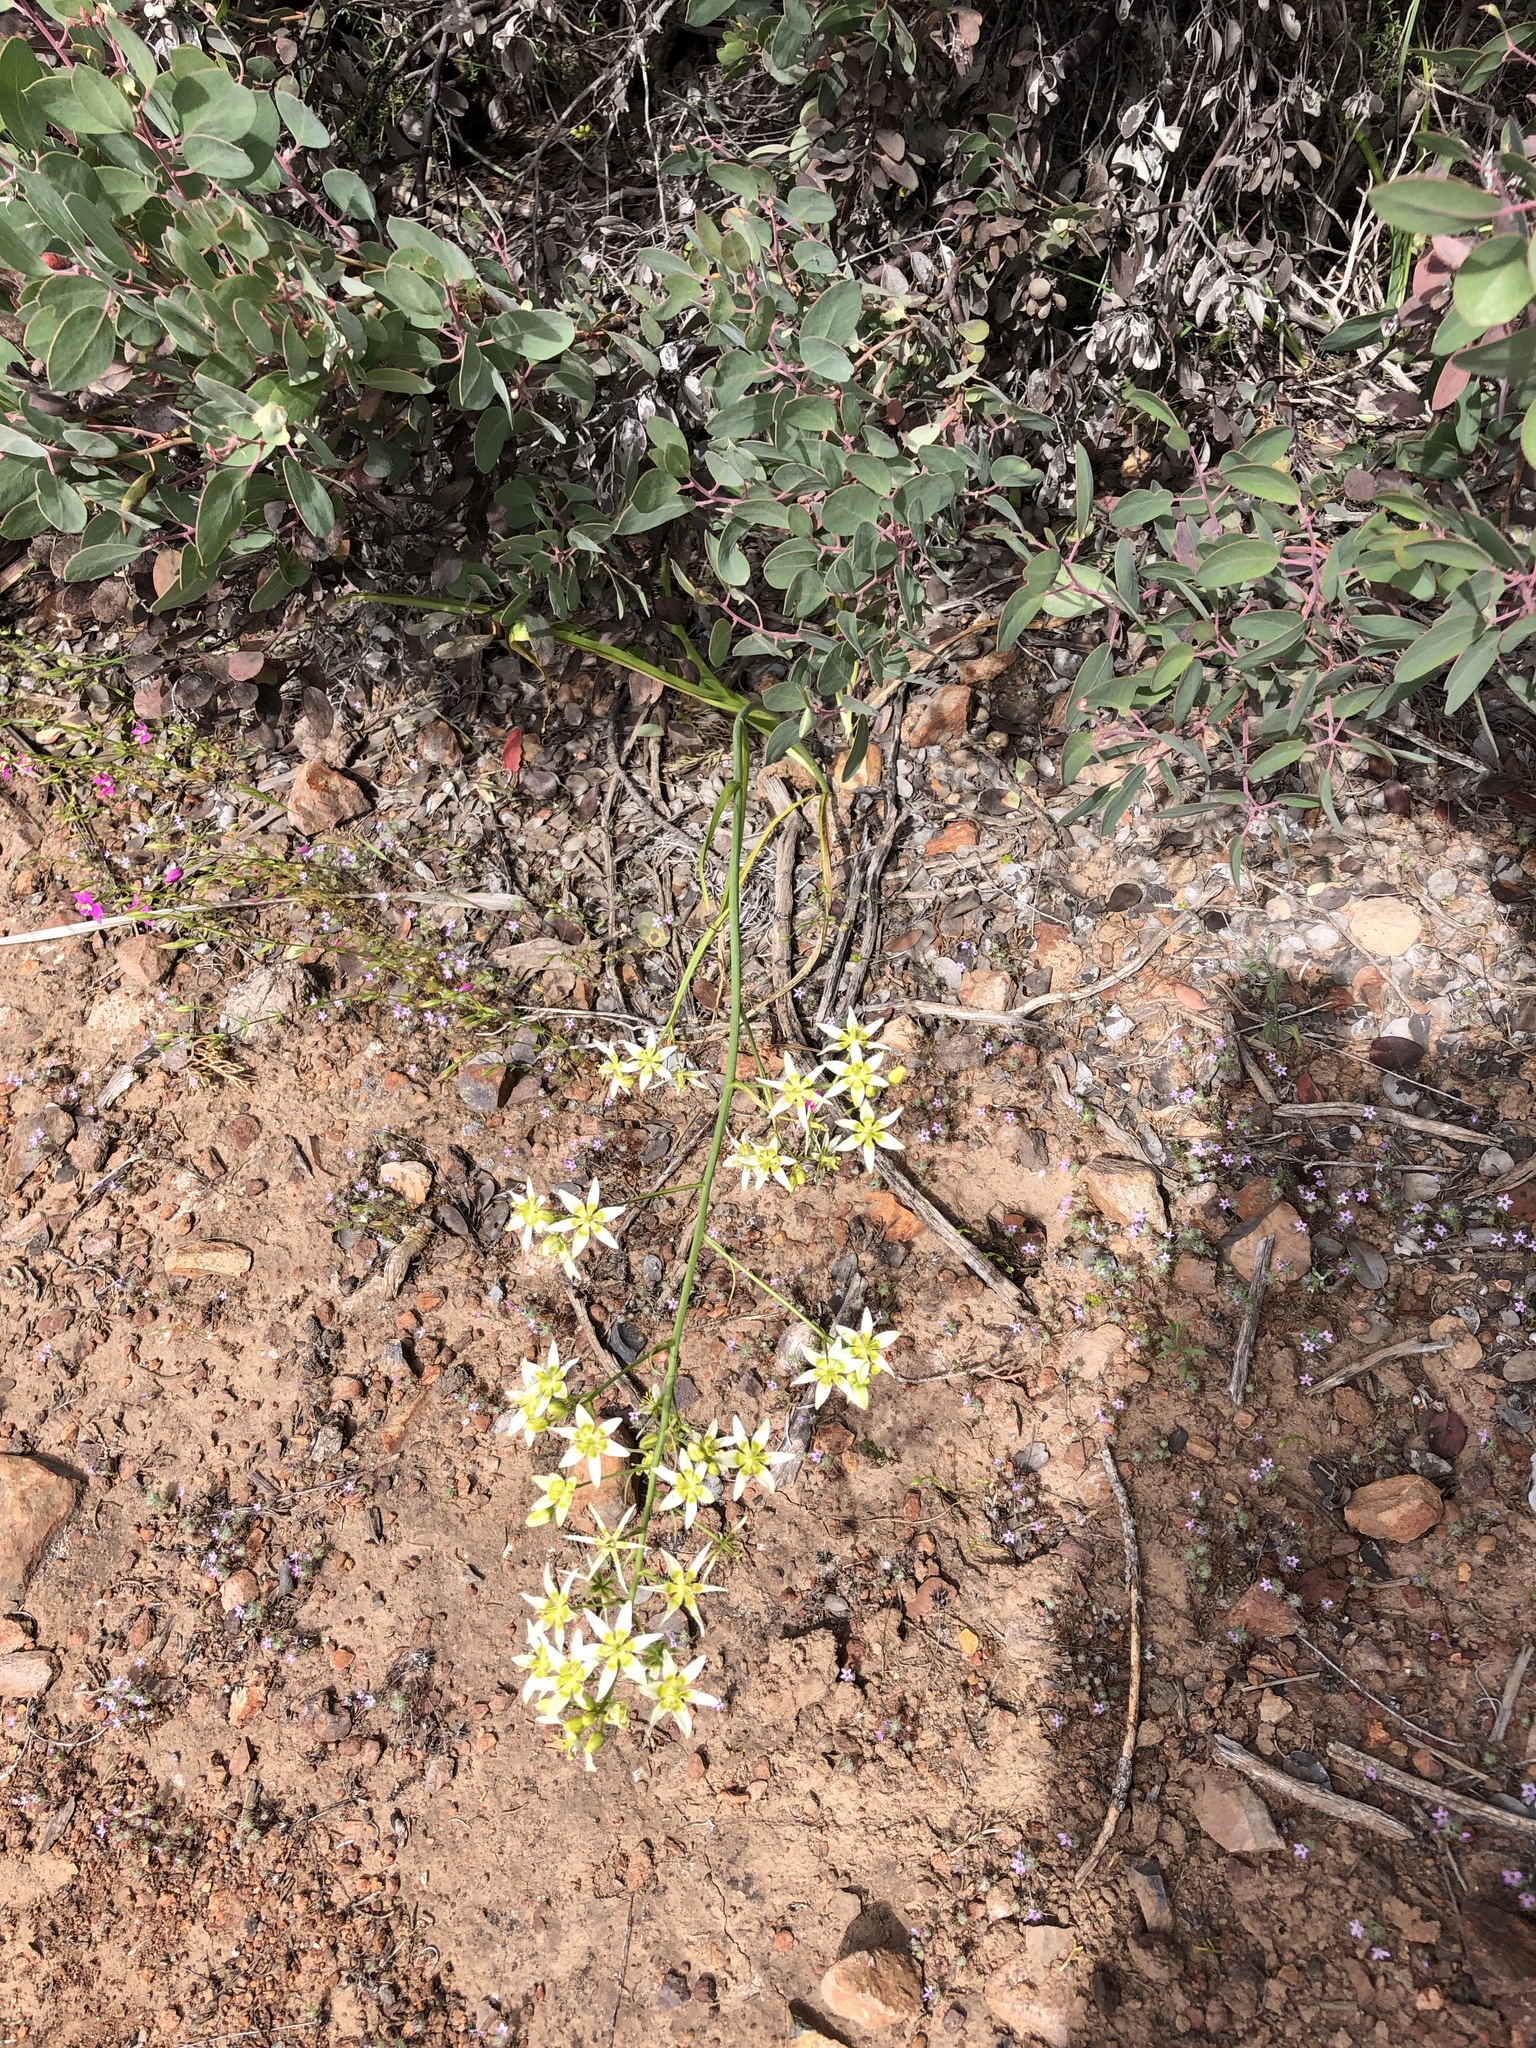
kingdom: Plantae
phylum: Tracheophyta
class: Liliopsida
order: Liliales
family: Melanthiaceae
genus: Toxicoscordion
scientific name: Toxicoscordion fremontii
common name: Fremont's death camas
